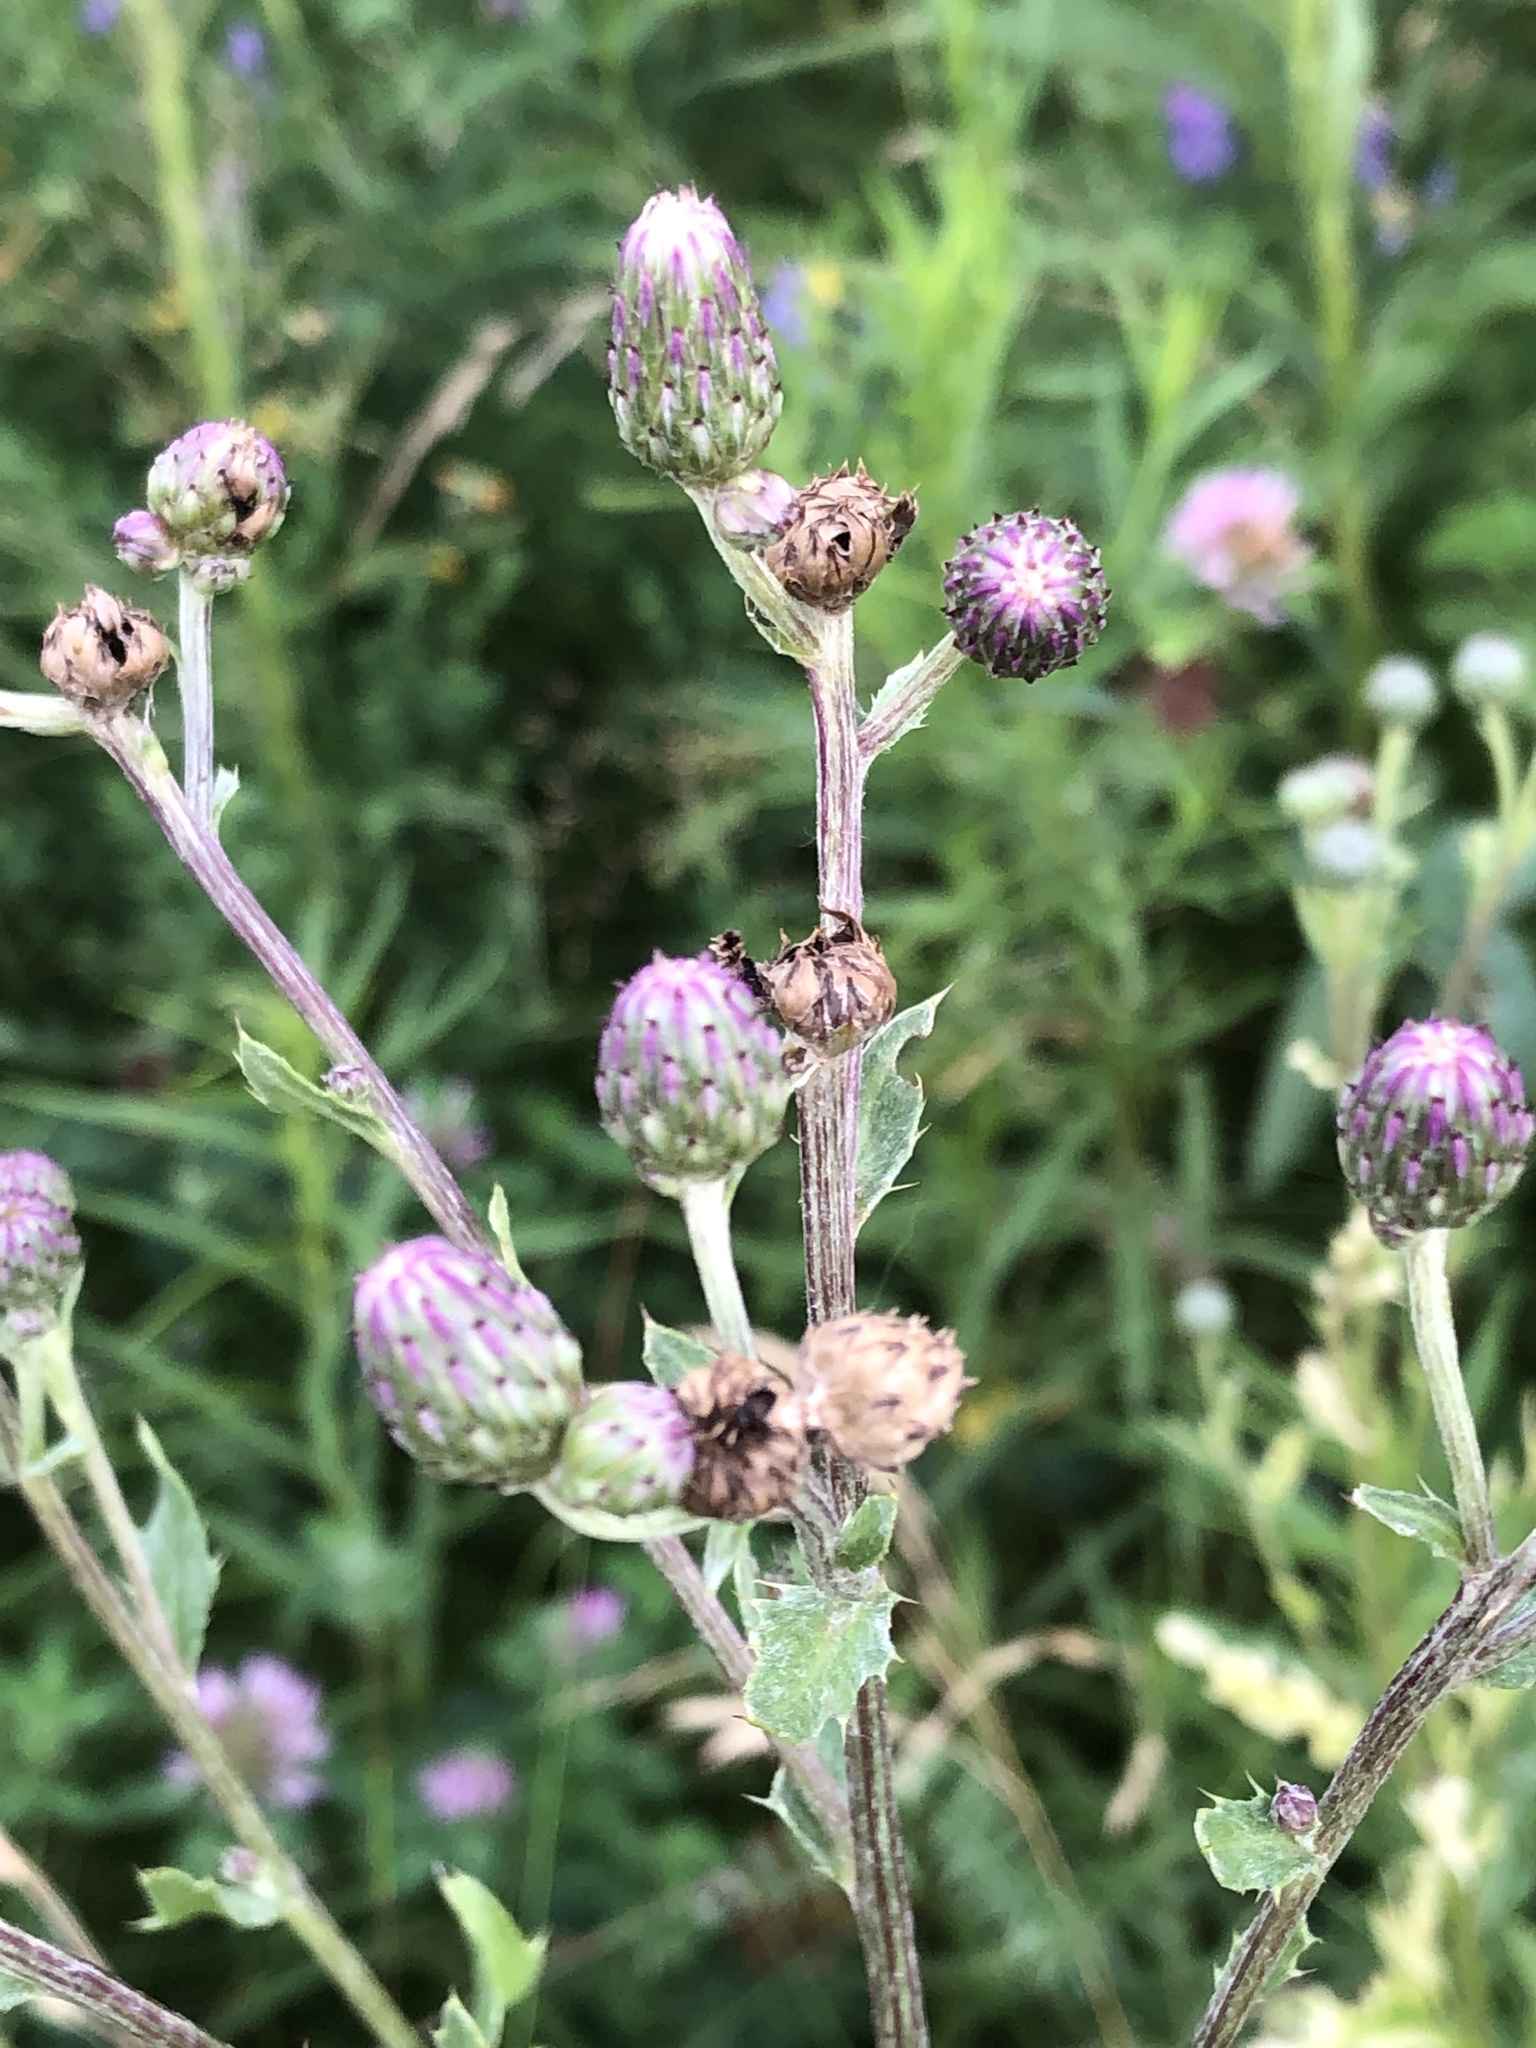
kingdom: Plantae
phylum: Tracheophyta
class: Magnoliopsida
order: Asterales
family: Asteraceae
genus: Cirsium
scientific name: Cirsium arvense
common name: Creeping thistle
